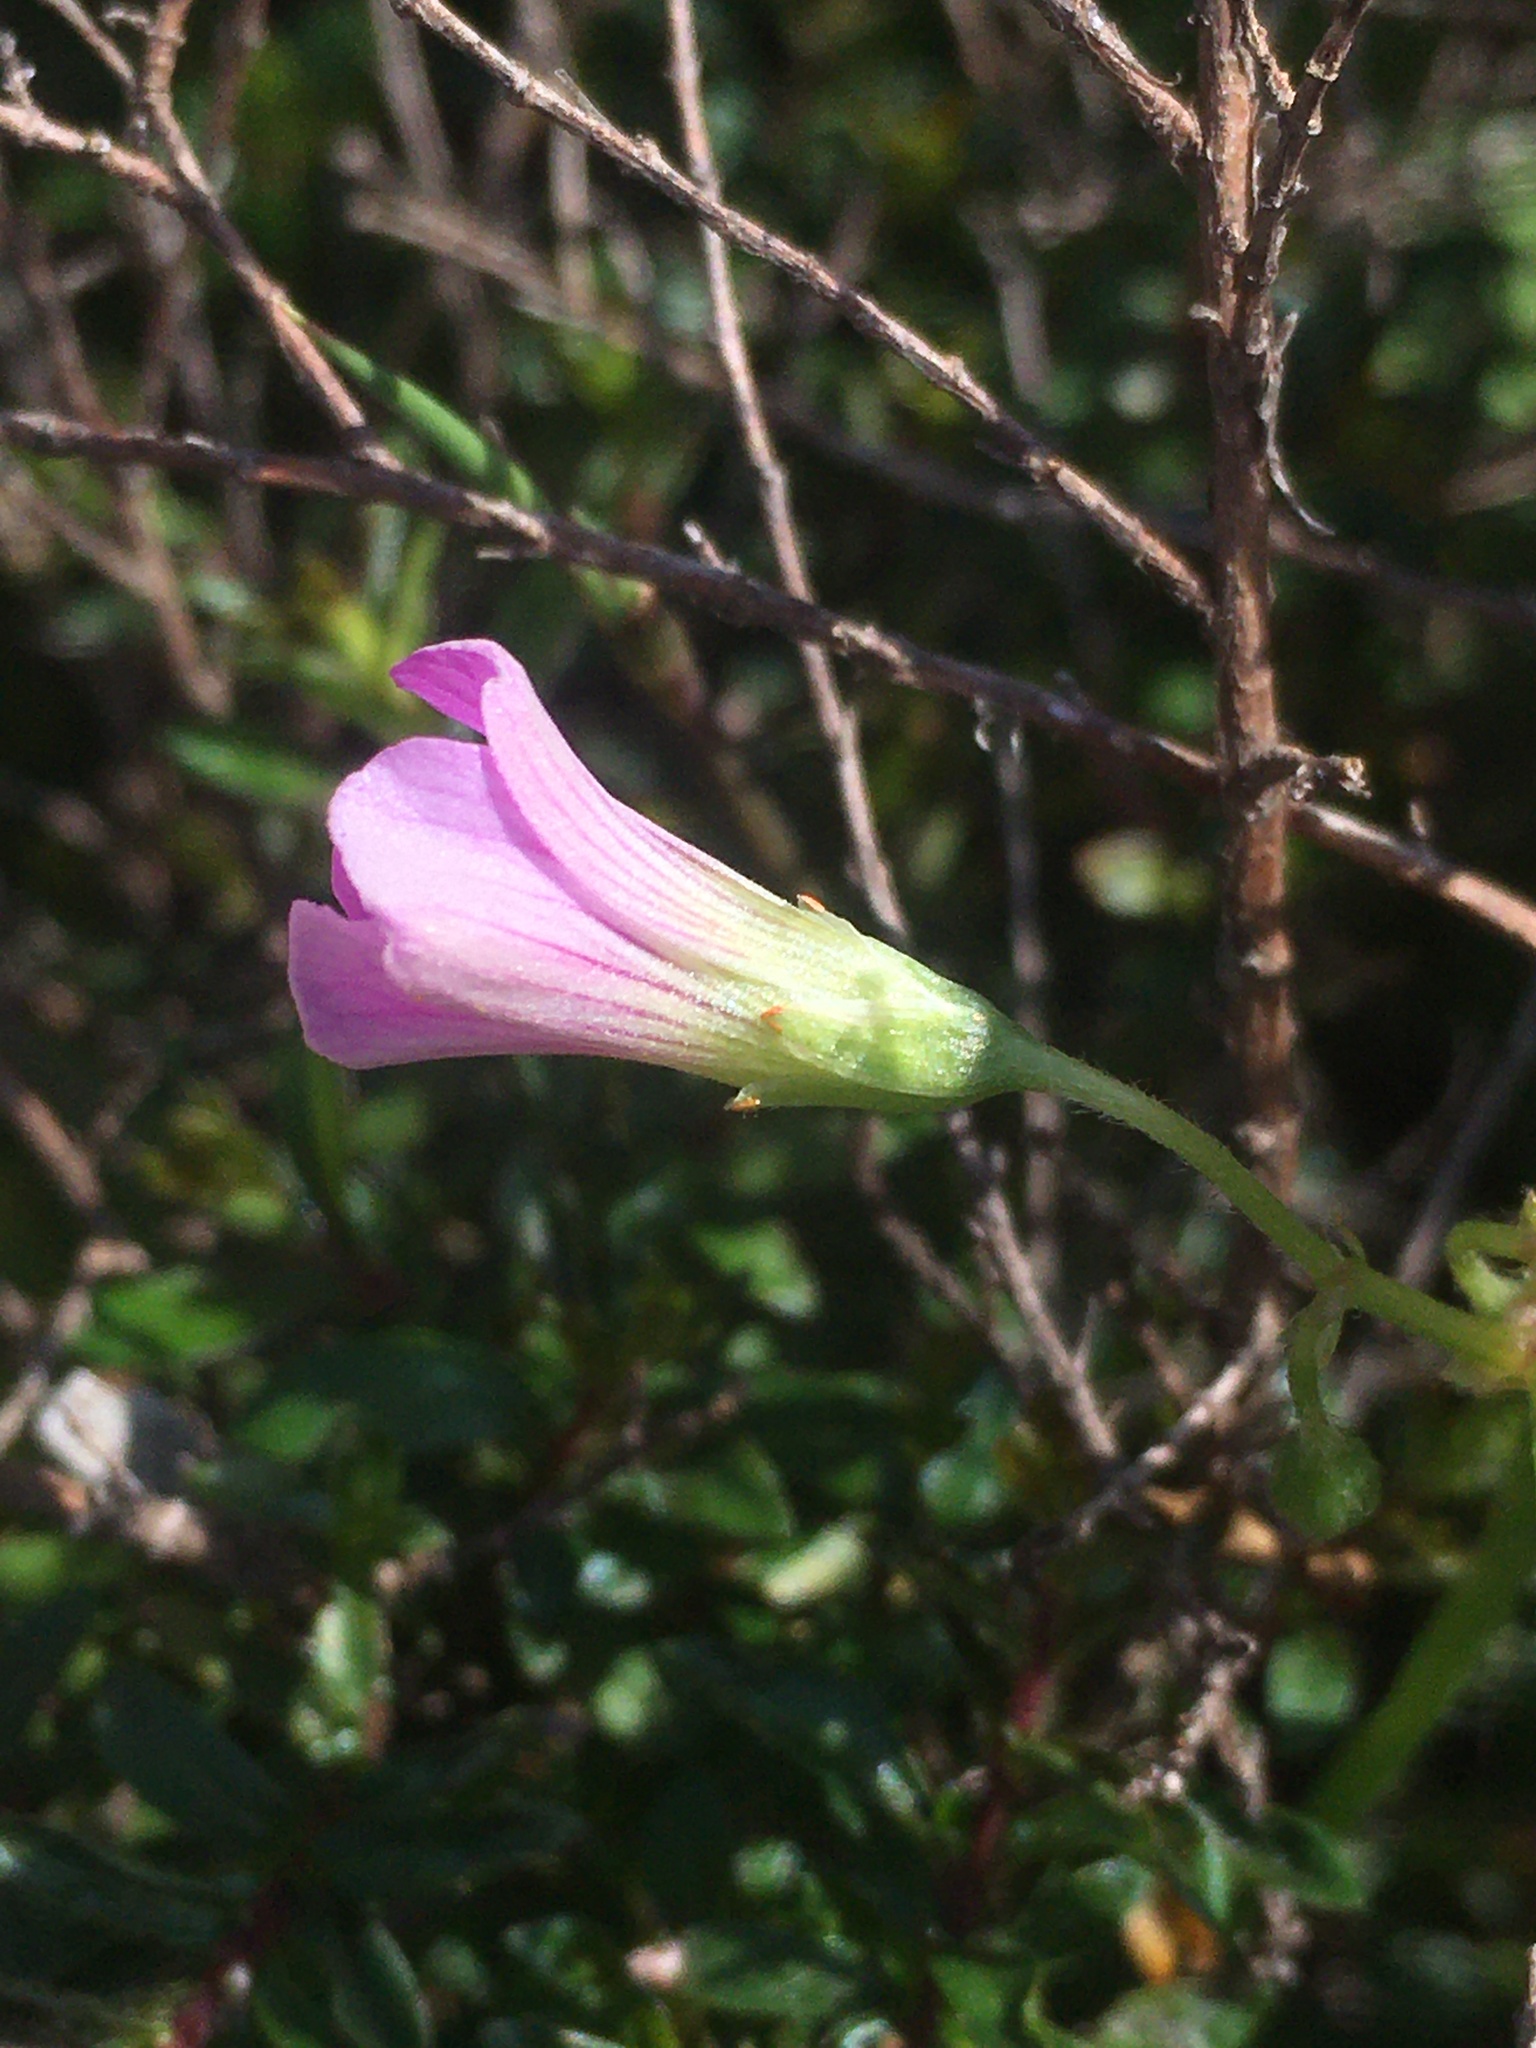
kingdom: Plantae
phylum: Tracheophyta
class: Magnoliopsida
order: Oxalidales
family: Oxalidaceae
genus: Oxalis
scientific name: Oxalis debilis
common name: Large-flowered pink-sorrel
